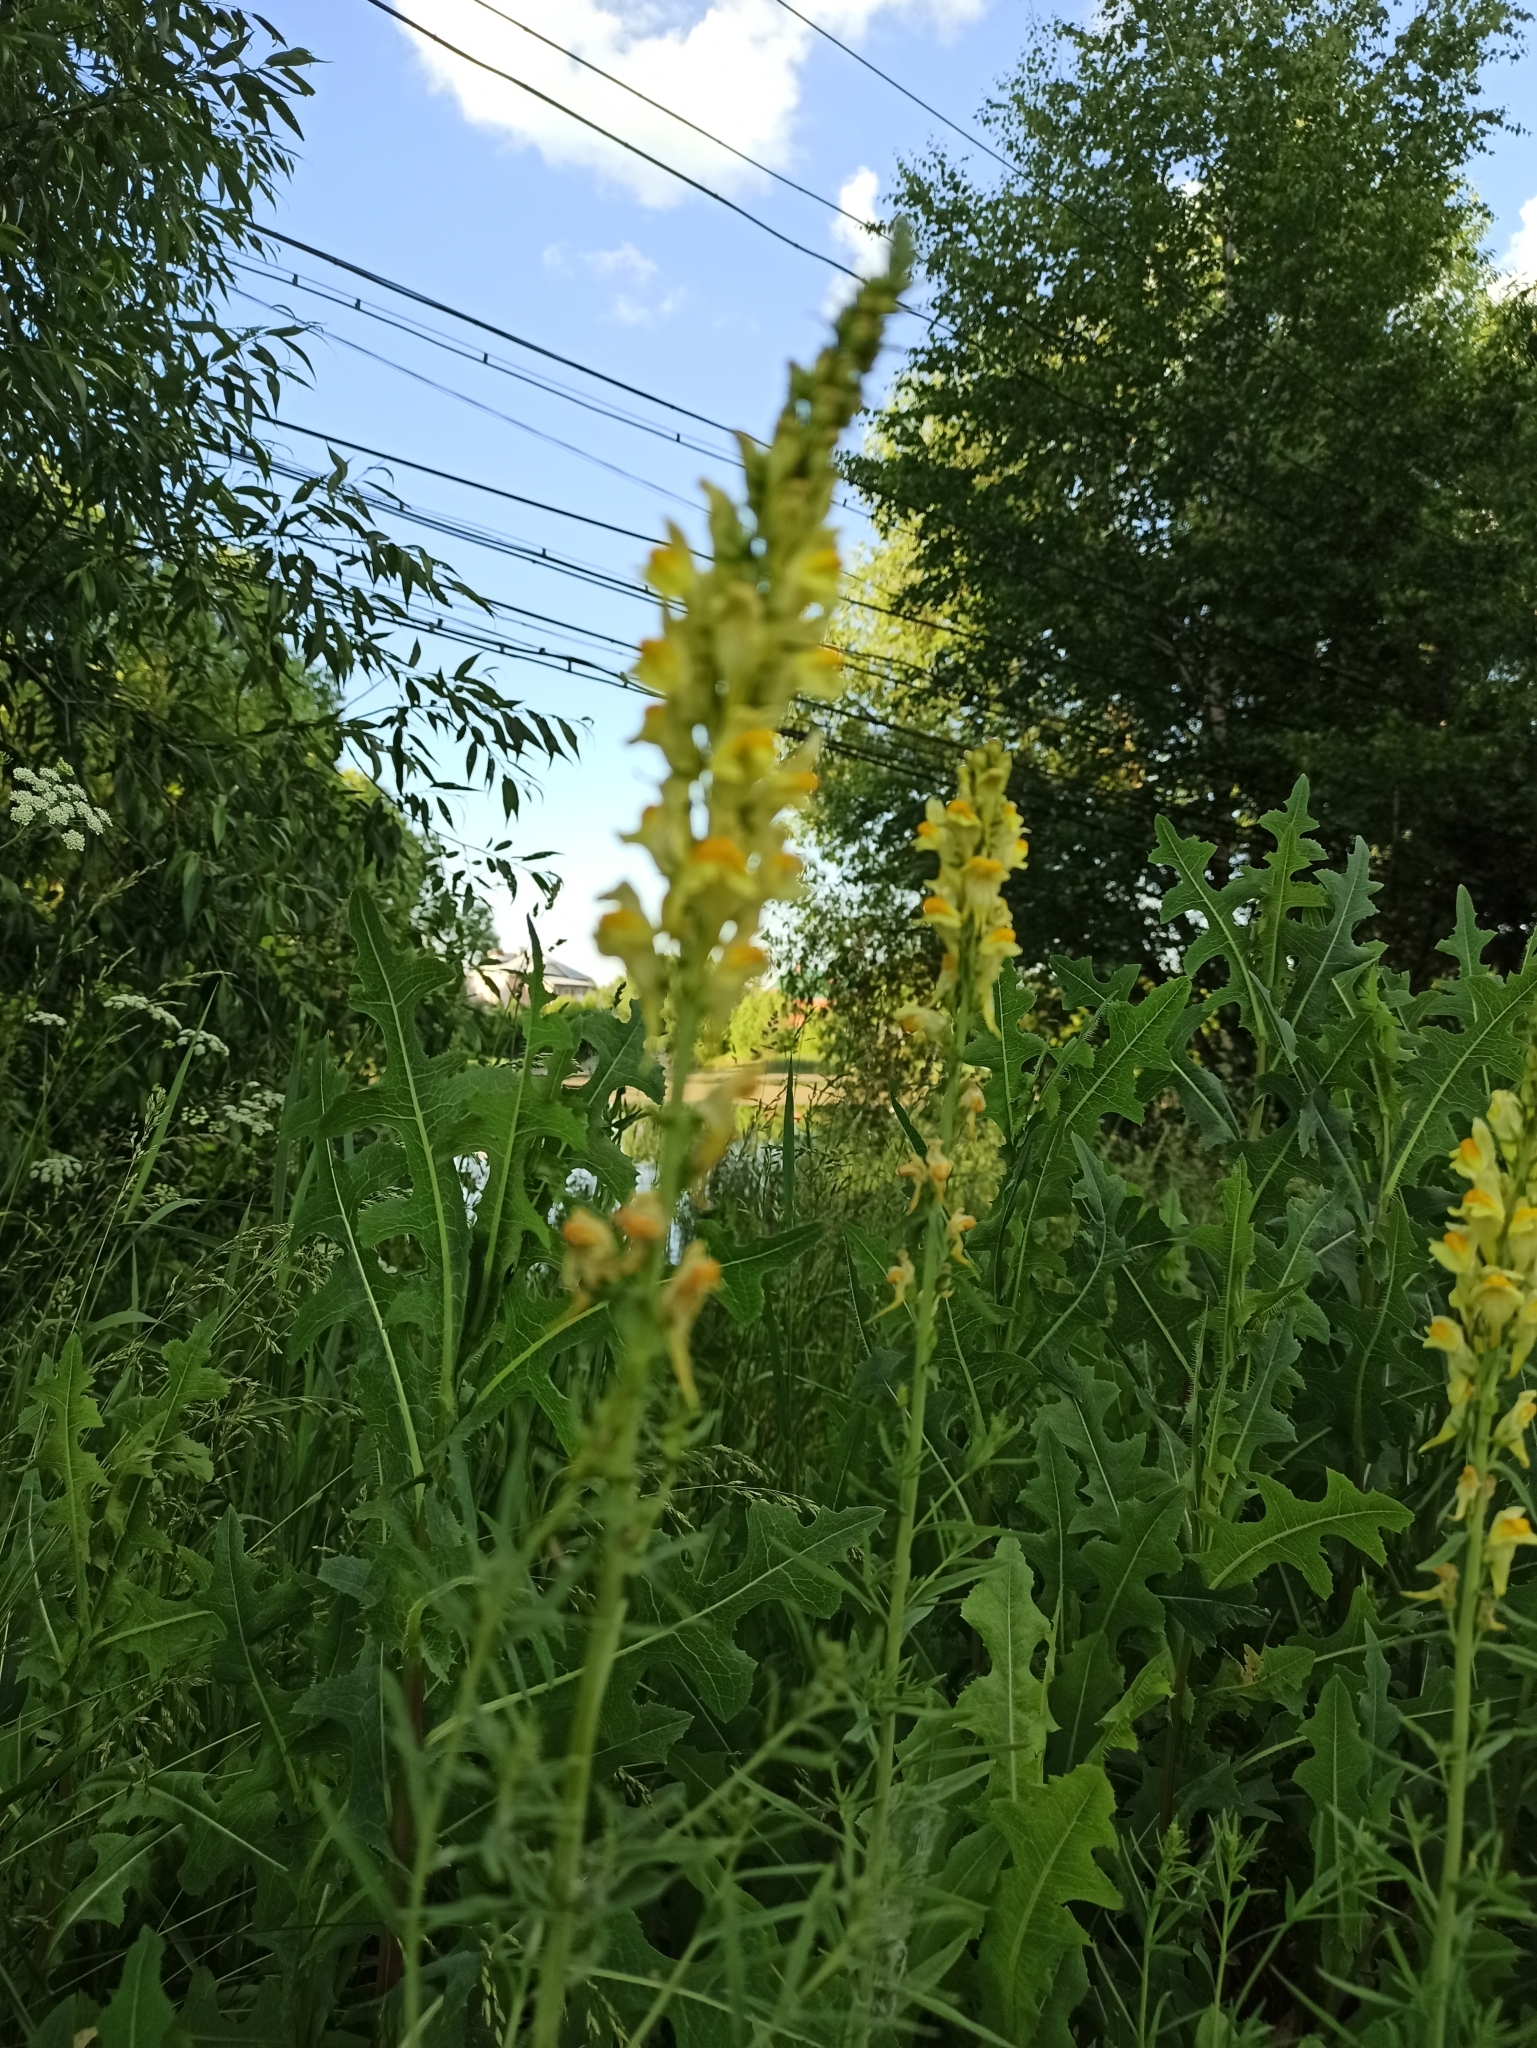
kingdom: Plantae
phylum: Tracheophyta
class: Magnoliopsida
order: Lamiales
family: Plantaginaceae
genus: Linaria
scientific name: Linaria vulgaris
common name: Butter and eggs
